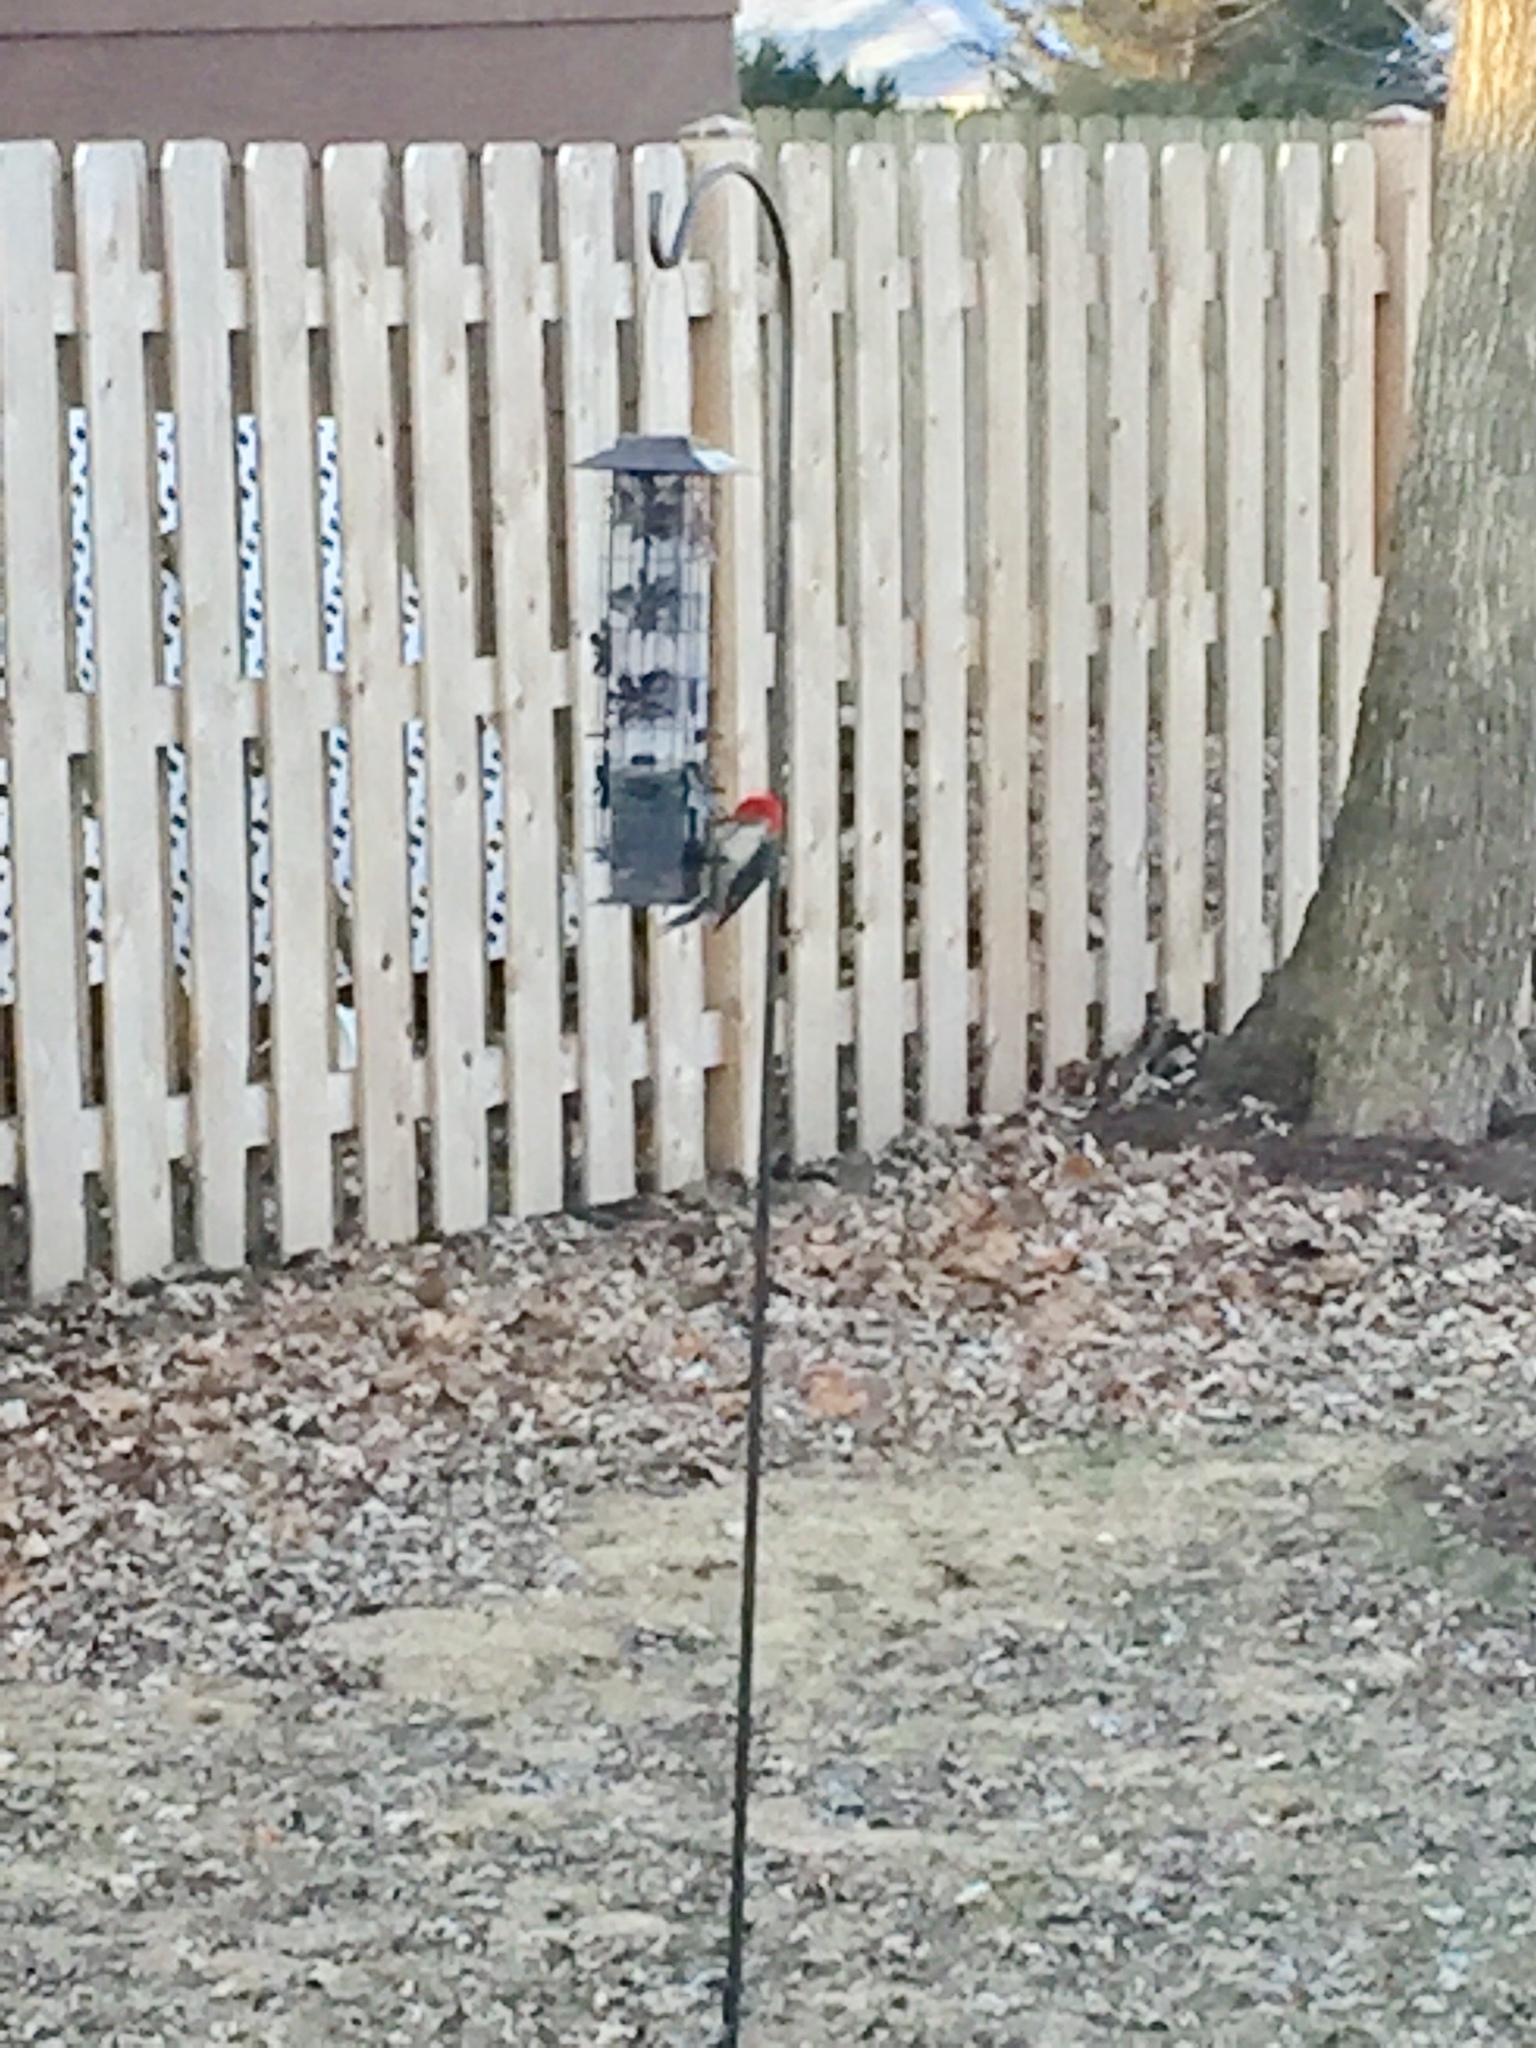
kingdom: Animalia
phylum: Chordata
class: Aves
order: Piciformes
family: Picidae
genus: Melanerpes
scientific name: Melanerpes carolinus
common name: Red-bellied woodpecker
